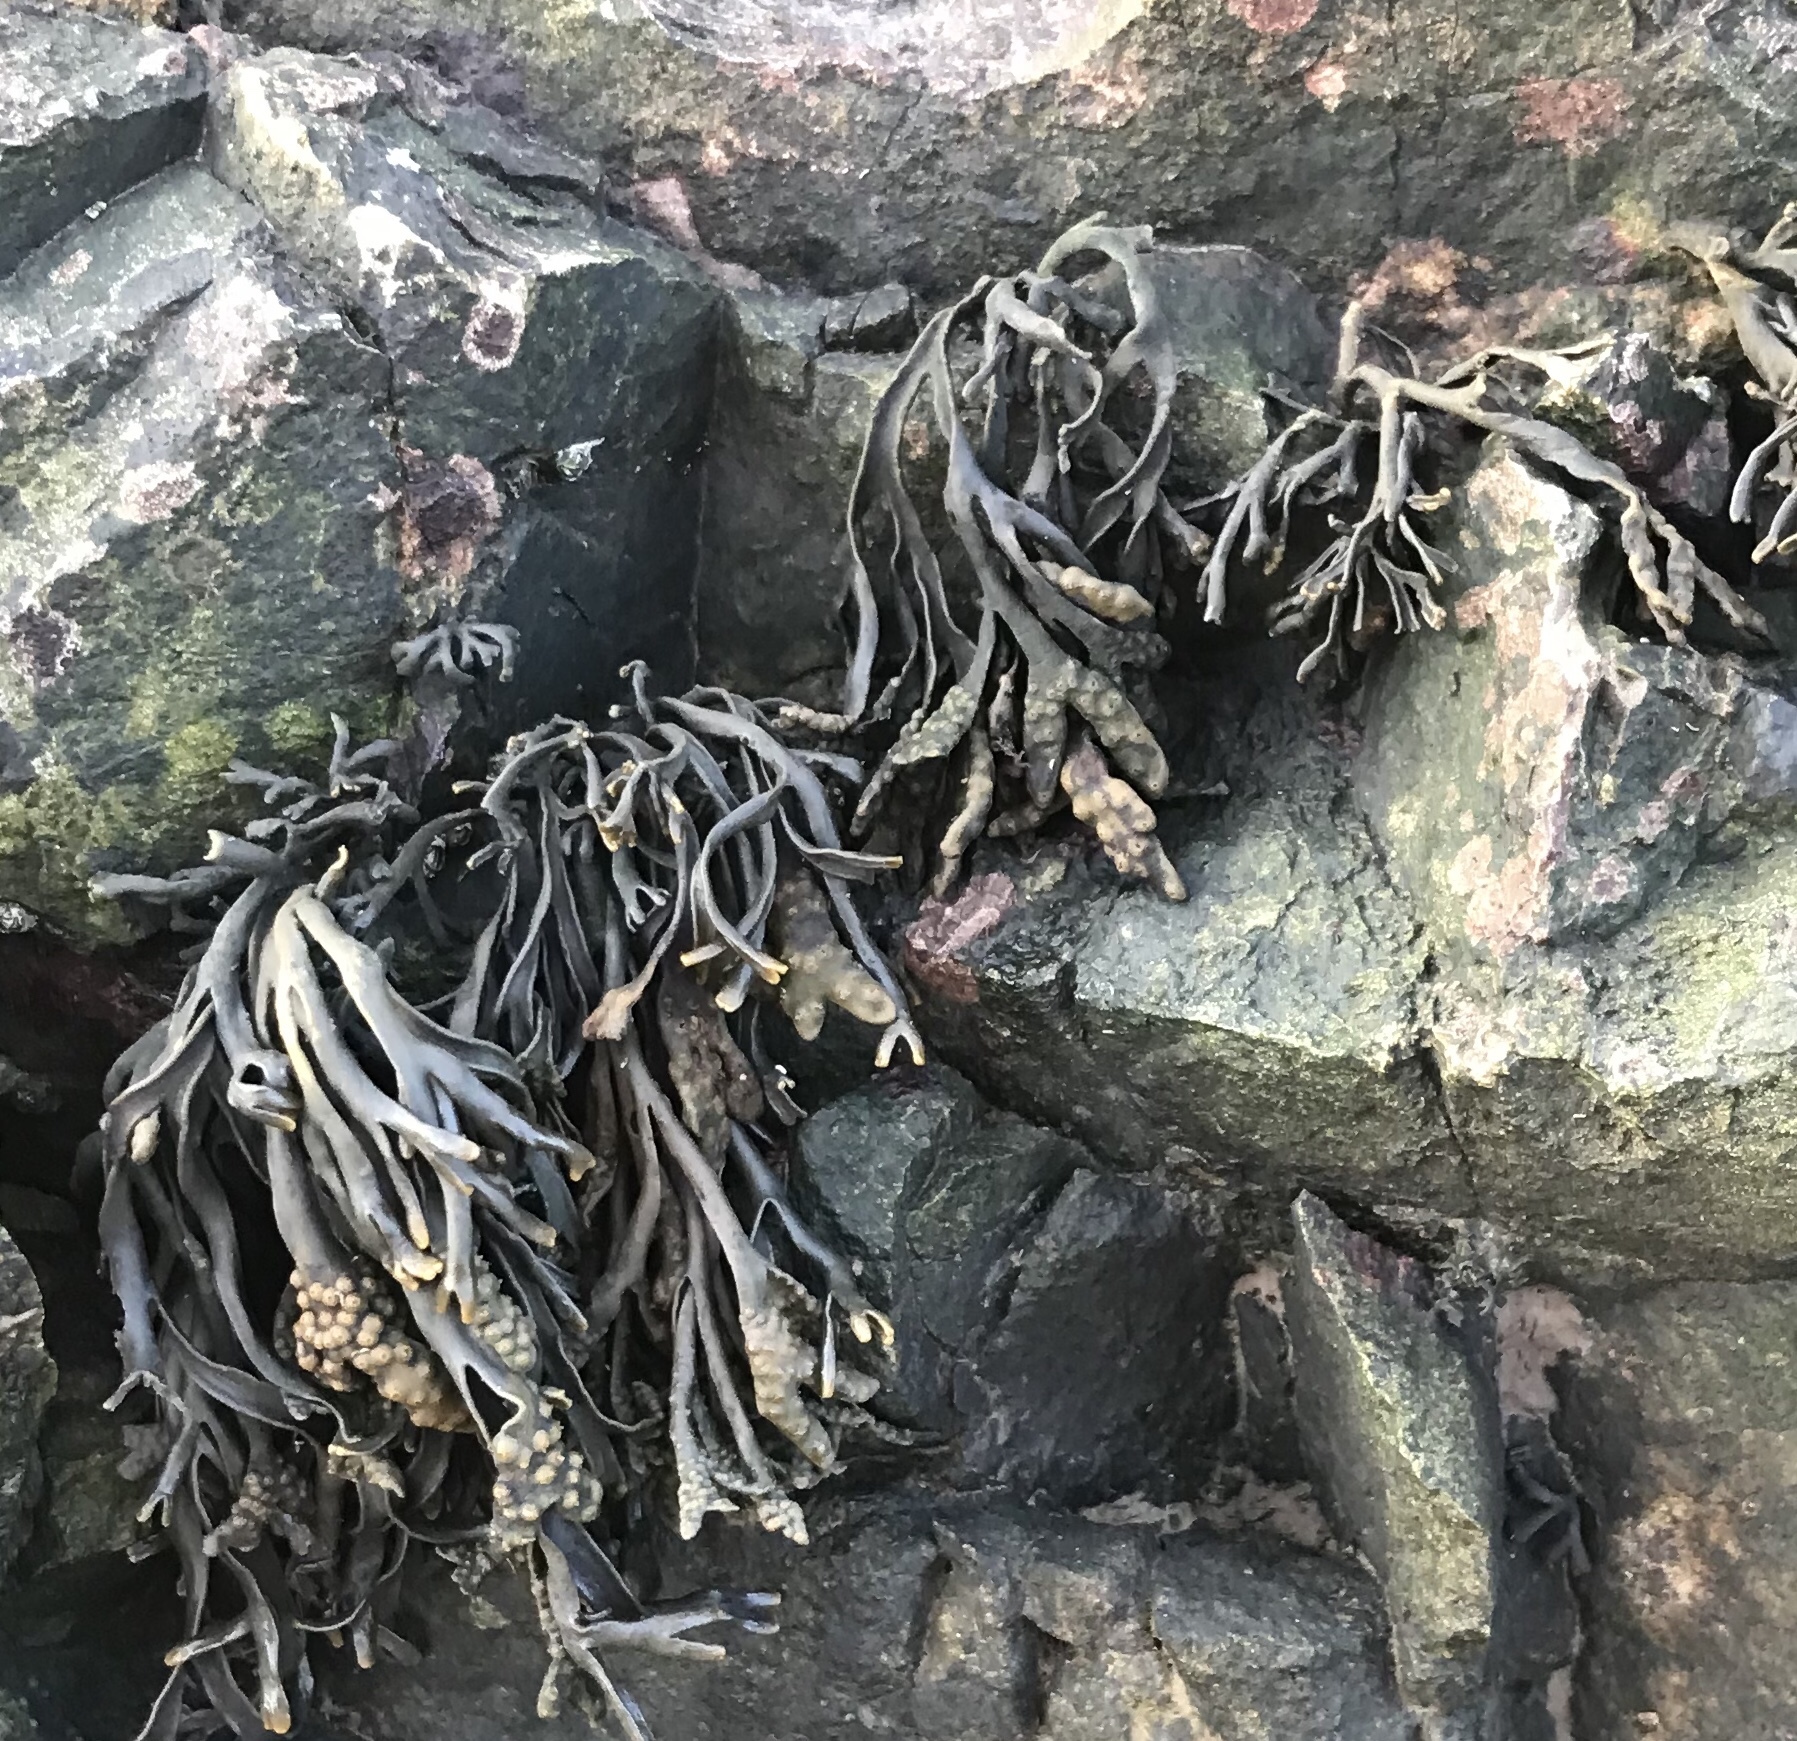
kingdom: Chromista
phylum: Ochrophyta
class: Phaeophyceae
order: Fucales
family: Fucaceae
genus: Pelvetia
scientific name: Pelvetia canaliculata
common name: Channelled wrack
